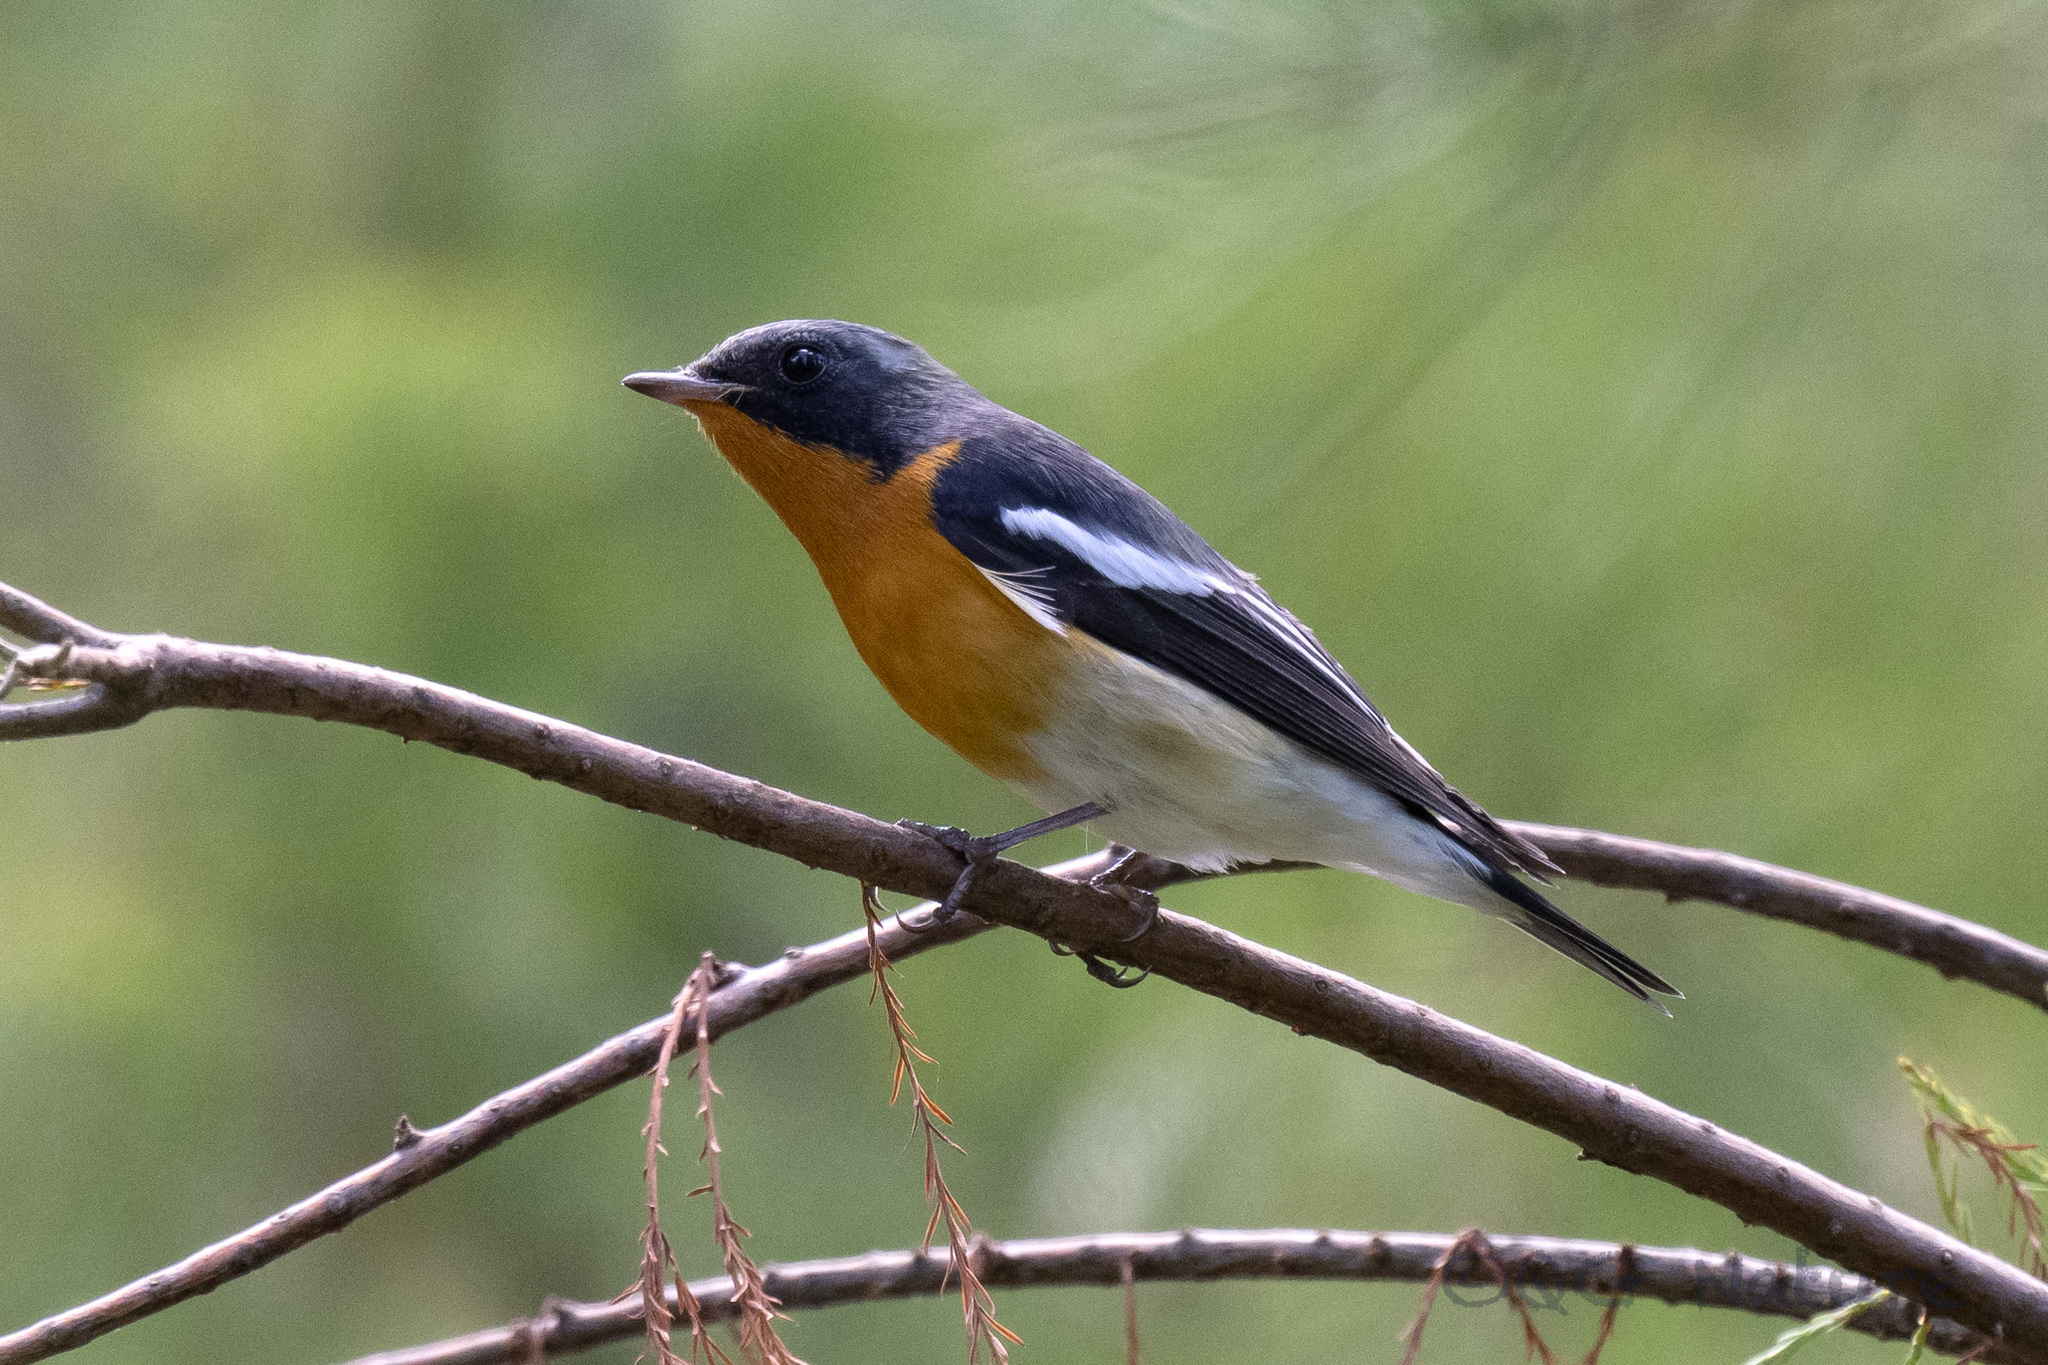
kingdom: Animalia
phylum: Chordata
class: Aves
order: Passeriformes
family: Muscicapidae
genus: Ficedula
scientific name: Ficedula mugimaki
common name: Mugimaki flycatcher
